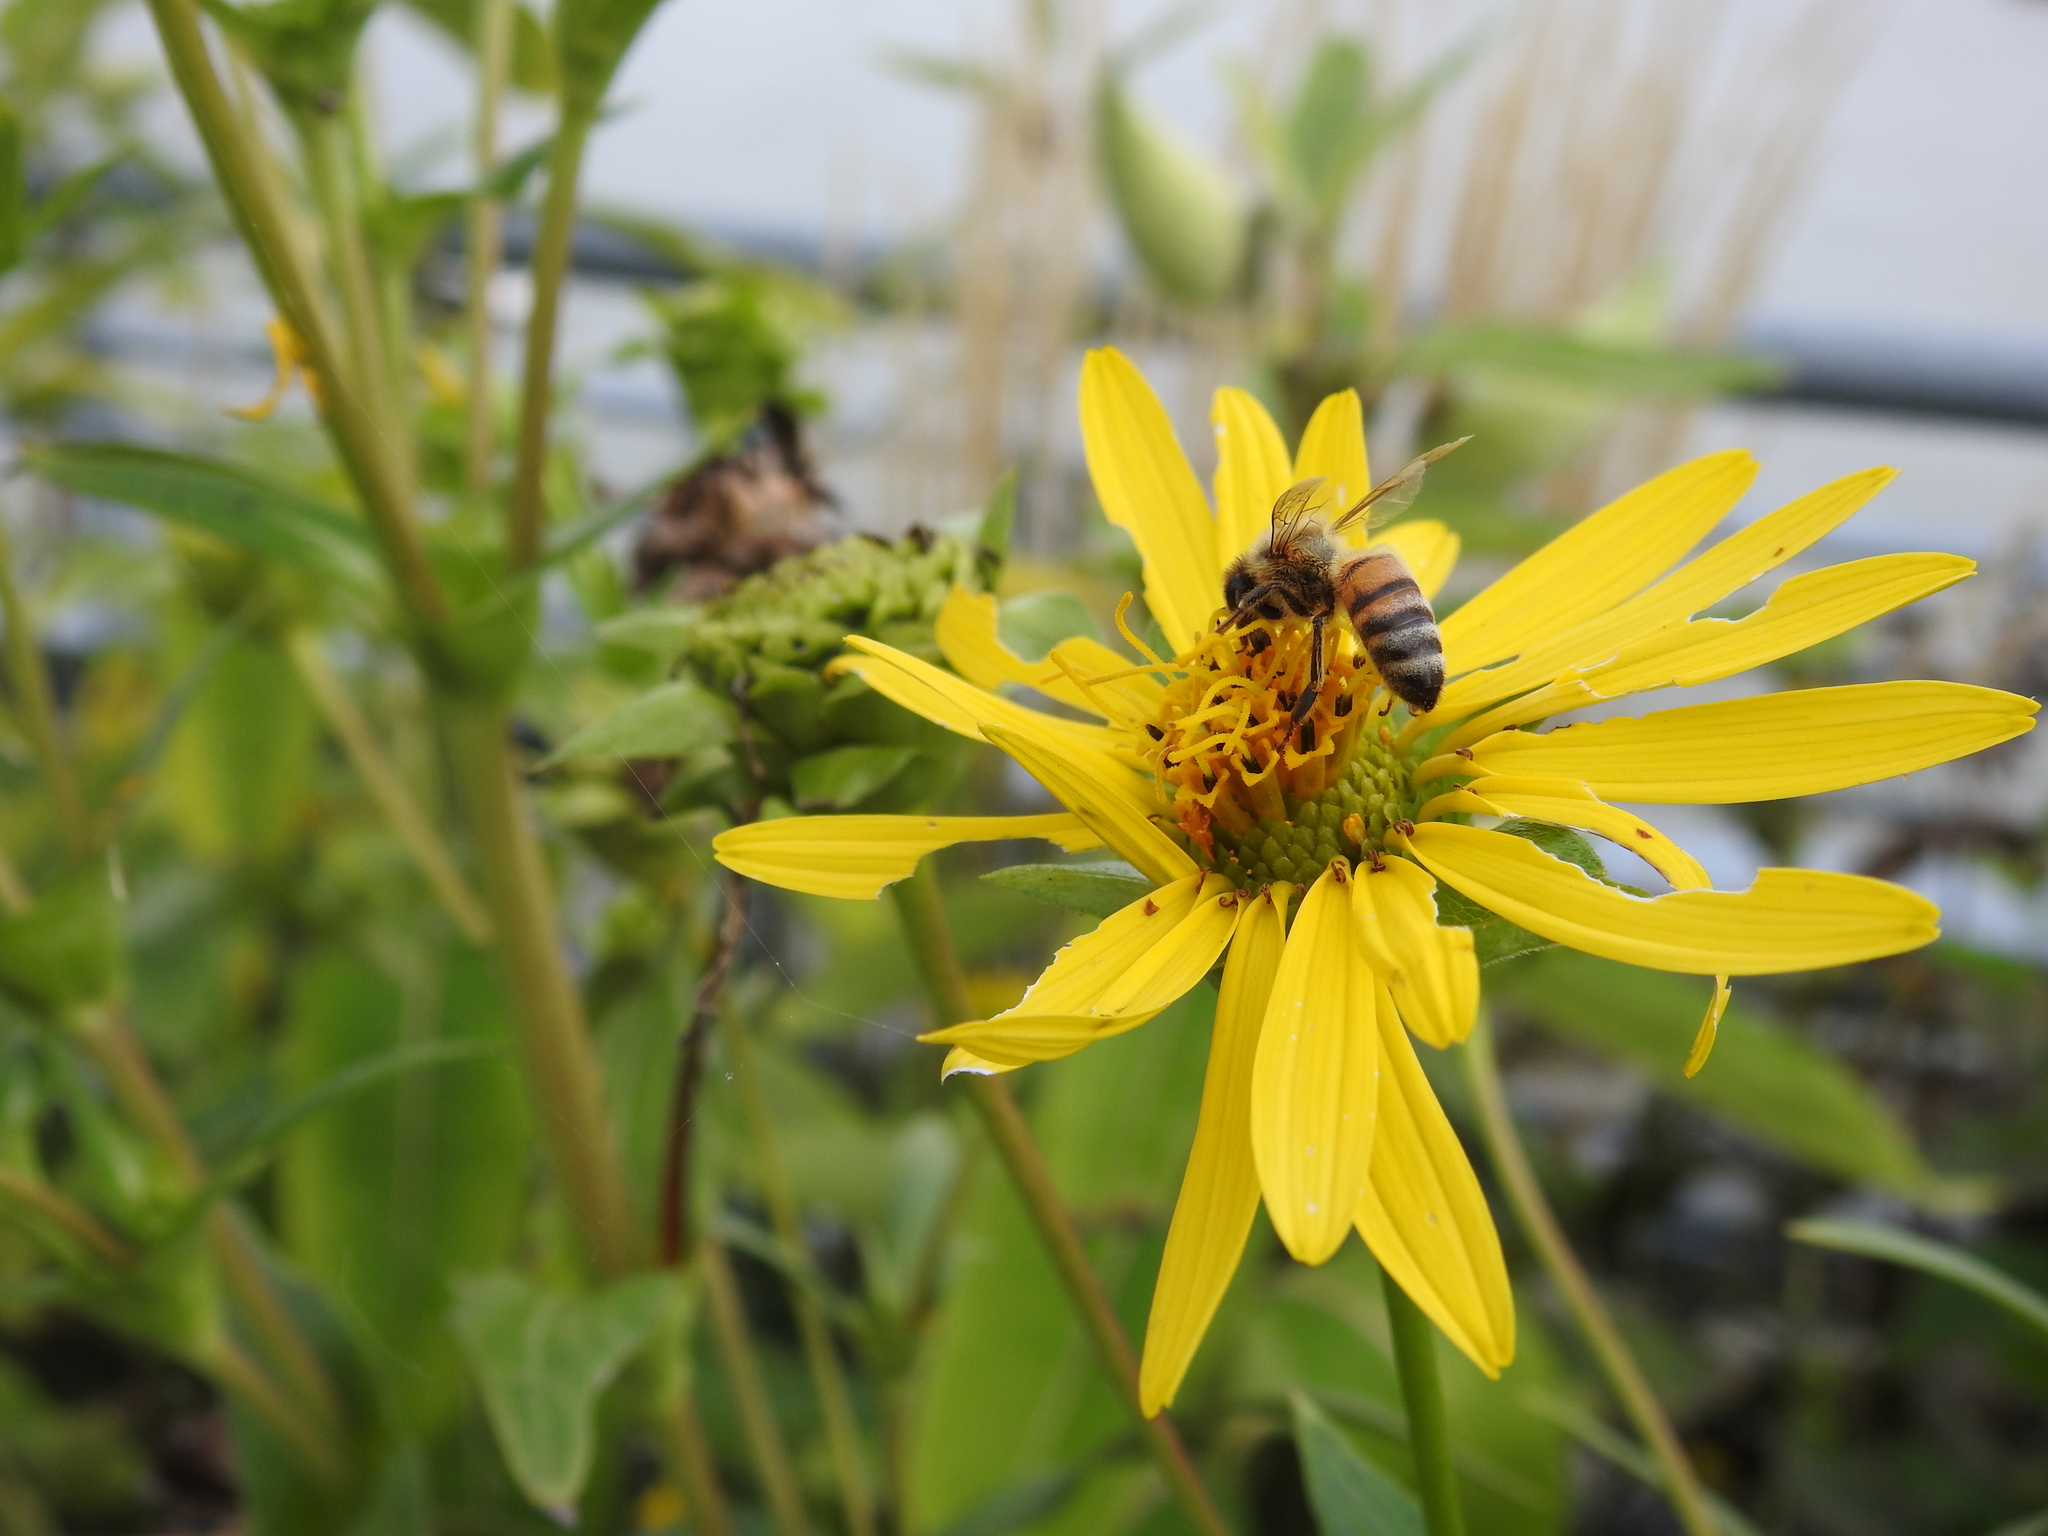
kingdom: Animalia
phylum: Arthropoda
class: Insecta
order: Hymenoptera
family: Apidae
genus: Apis
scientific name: Apis mellifera
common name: Honey bee
